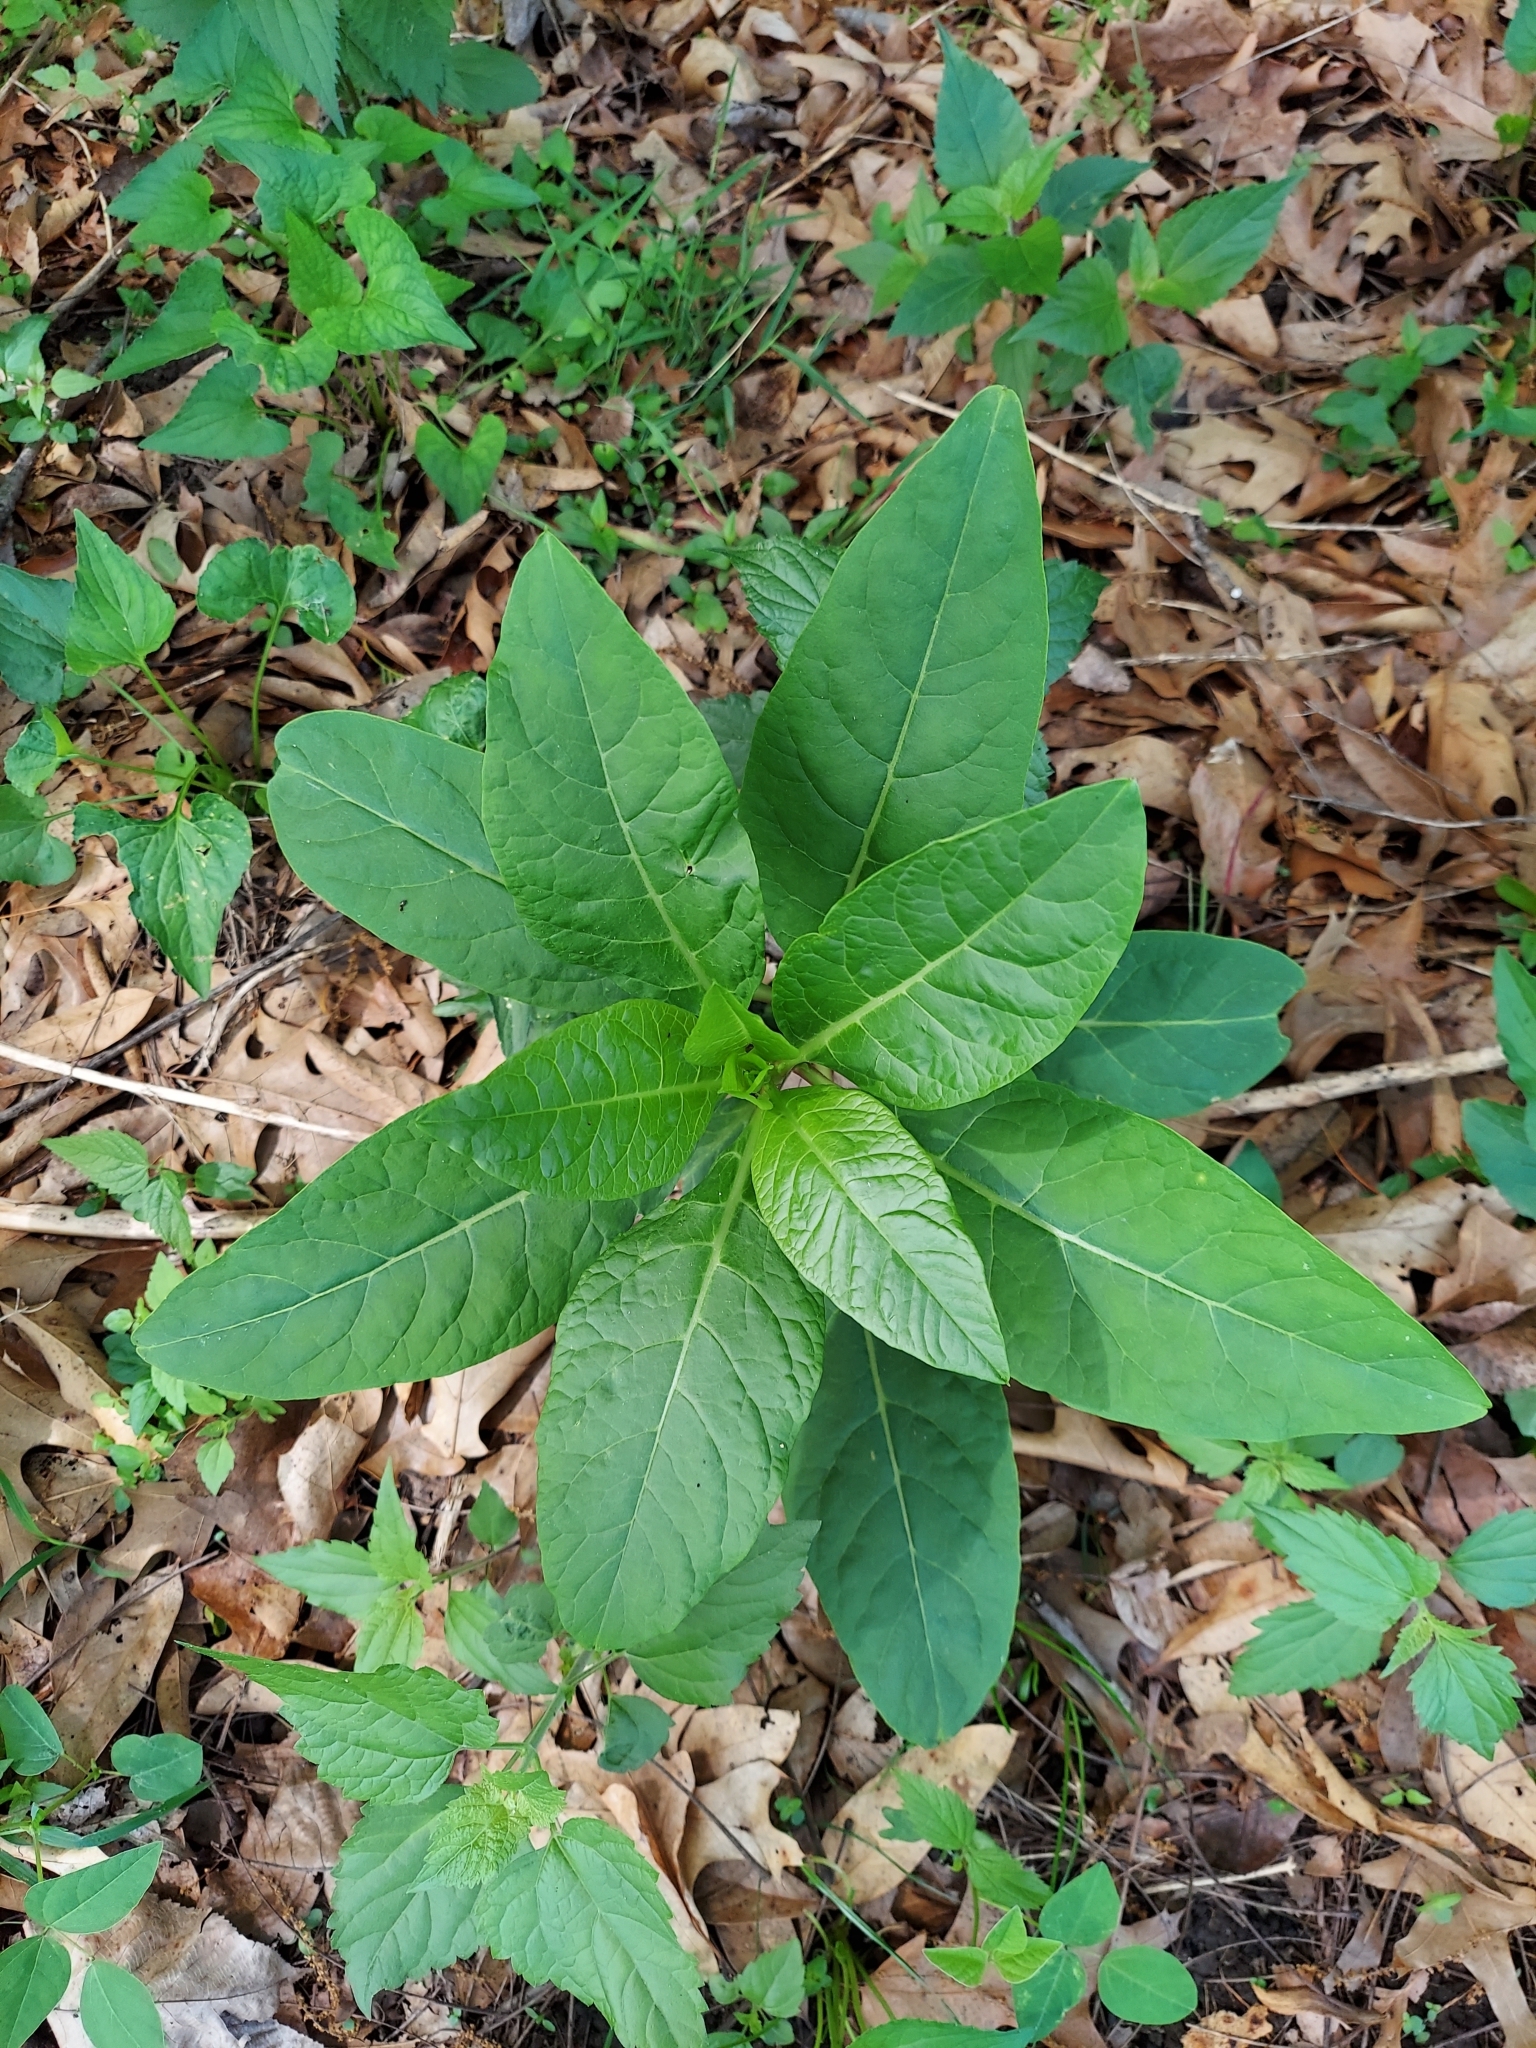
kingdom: Plantae
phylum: Tracheophyta
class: Magnoliopsida
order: Caryophyllales
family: Phytolaccaceae
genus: Phytolacca
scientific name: Phytolacca americana
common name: American pokeweed
